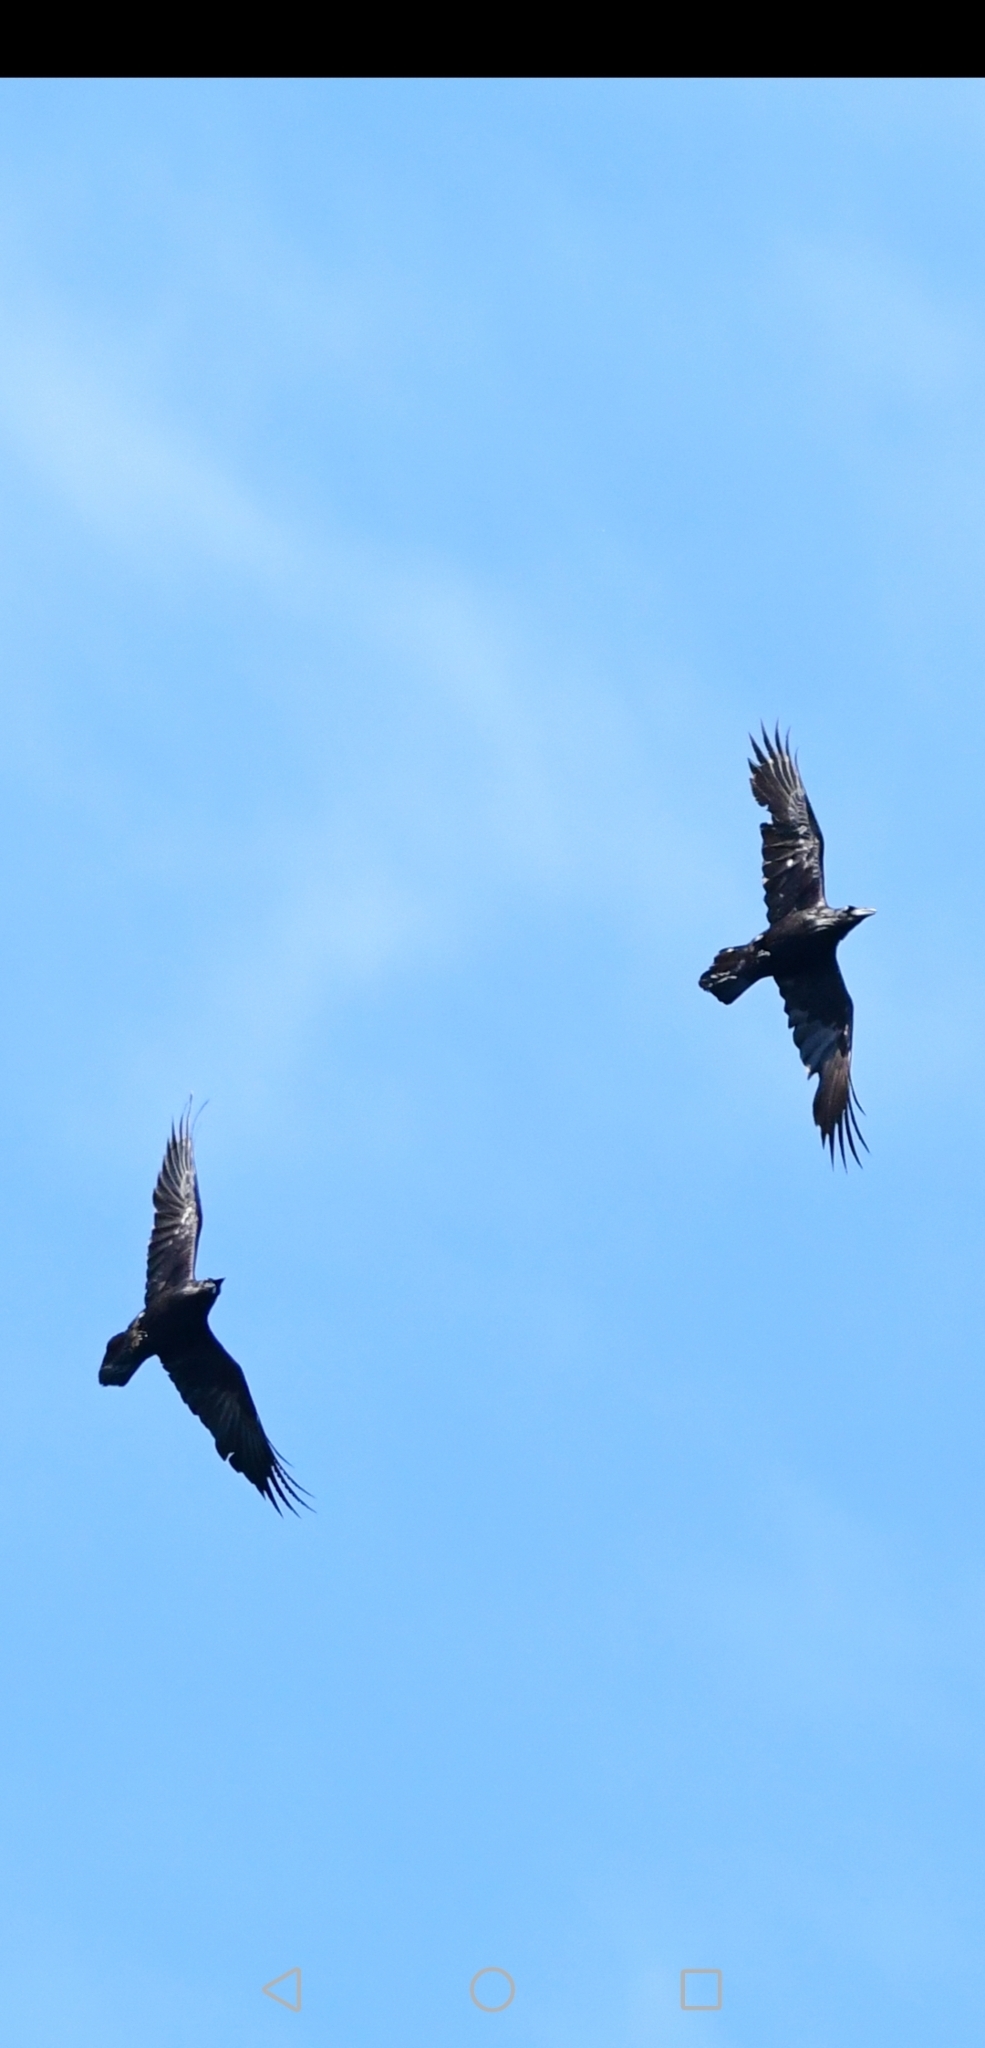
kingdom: Animalia
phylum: Chordata
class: Aves
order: Passeriformes
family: Corvidae
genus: Corvus
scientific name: Corvus corax
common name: Common raven
